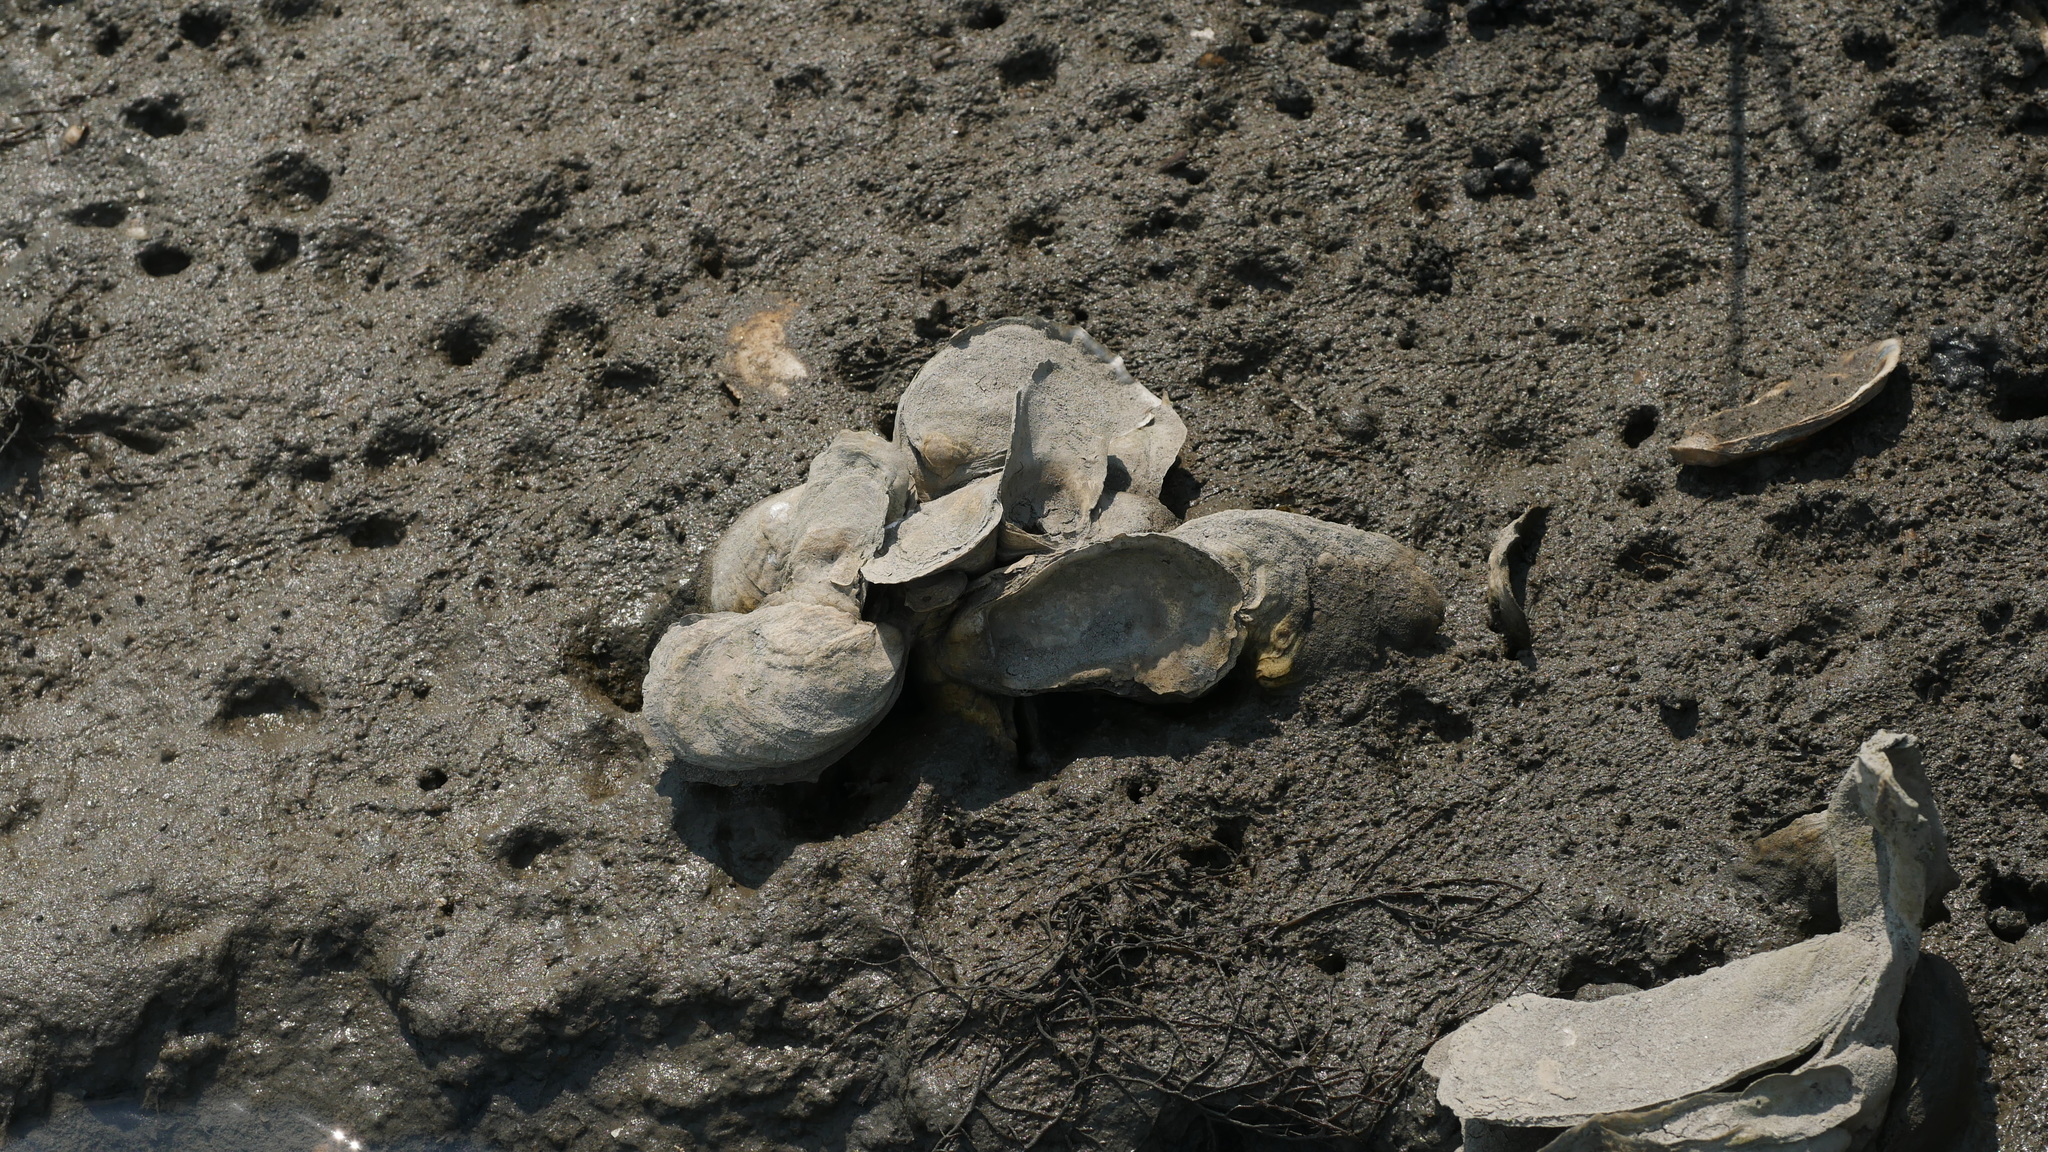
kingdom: Animalia
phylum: Mollusca
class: Bivalvia
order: Ostreida
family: Ostreidae
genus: Crassostrea
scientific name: Crassostrea virginica
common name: American oyster
